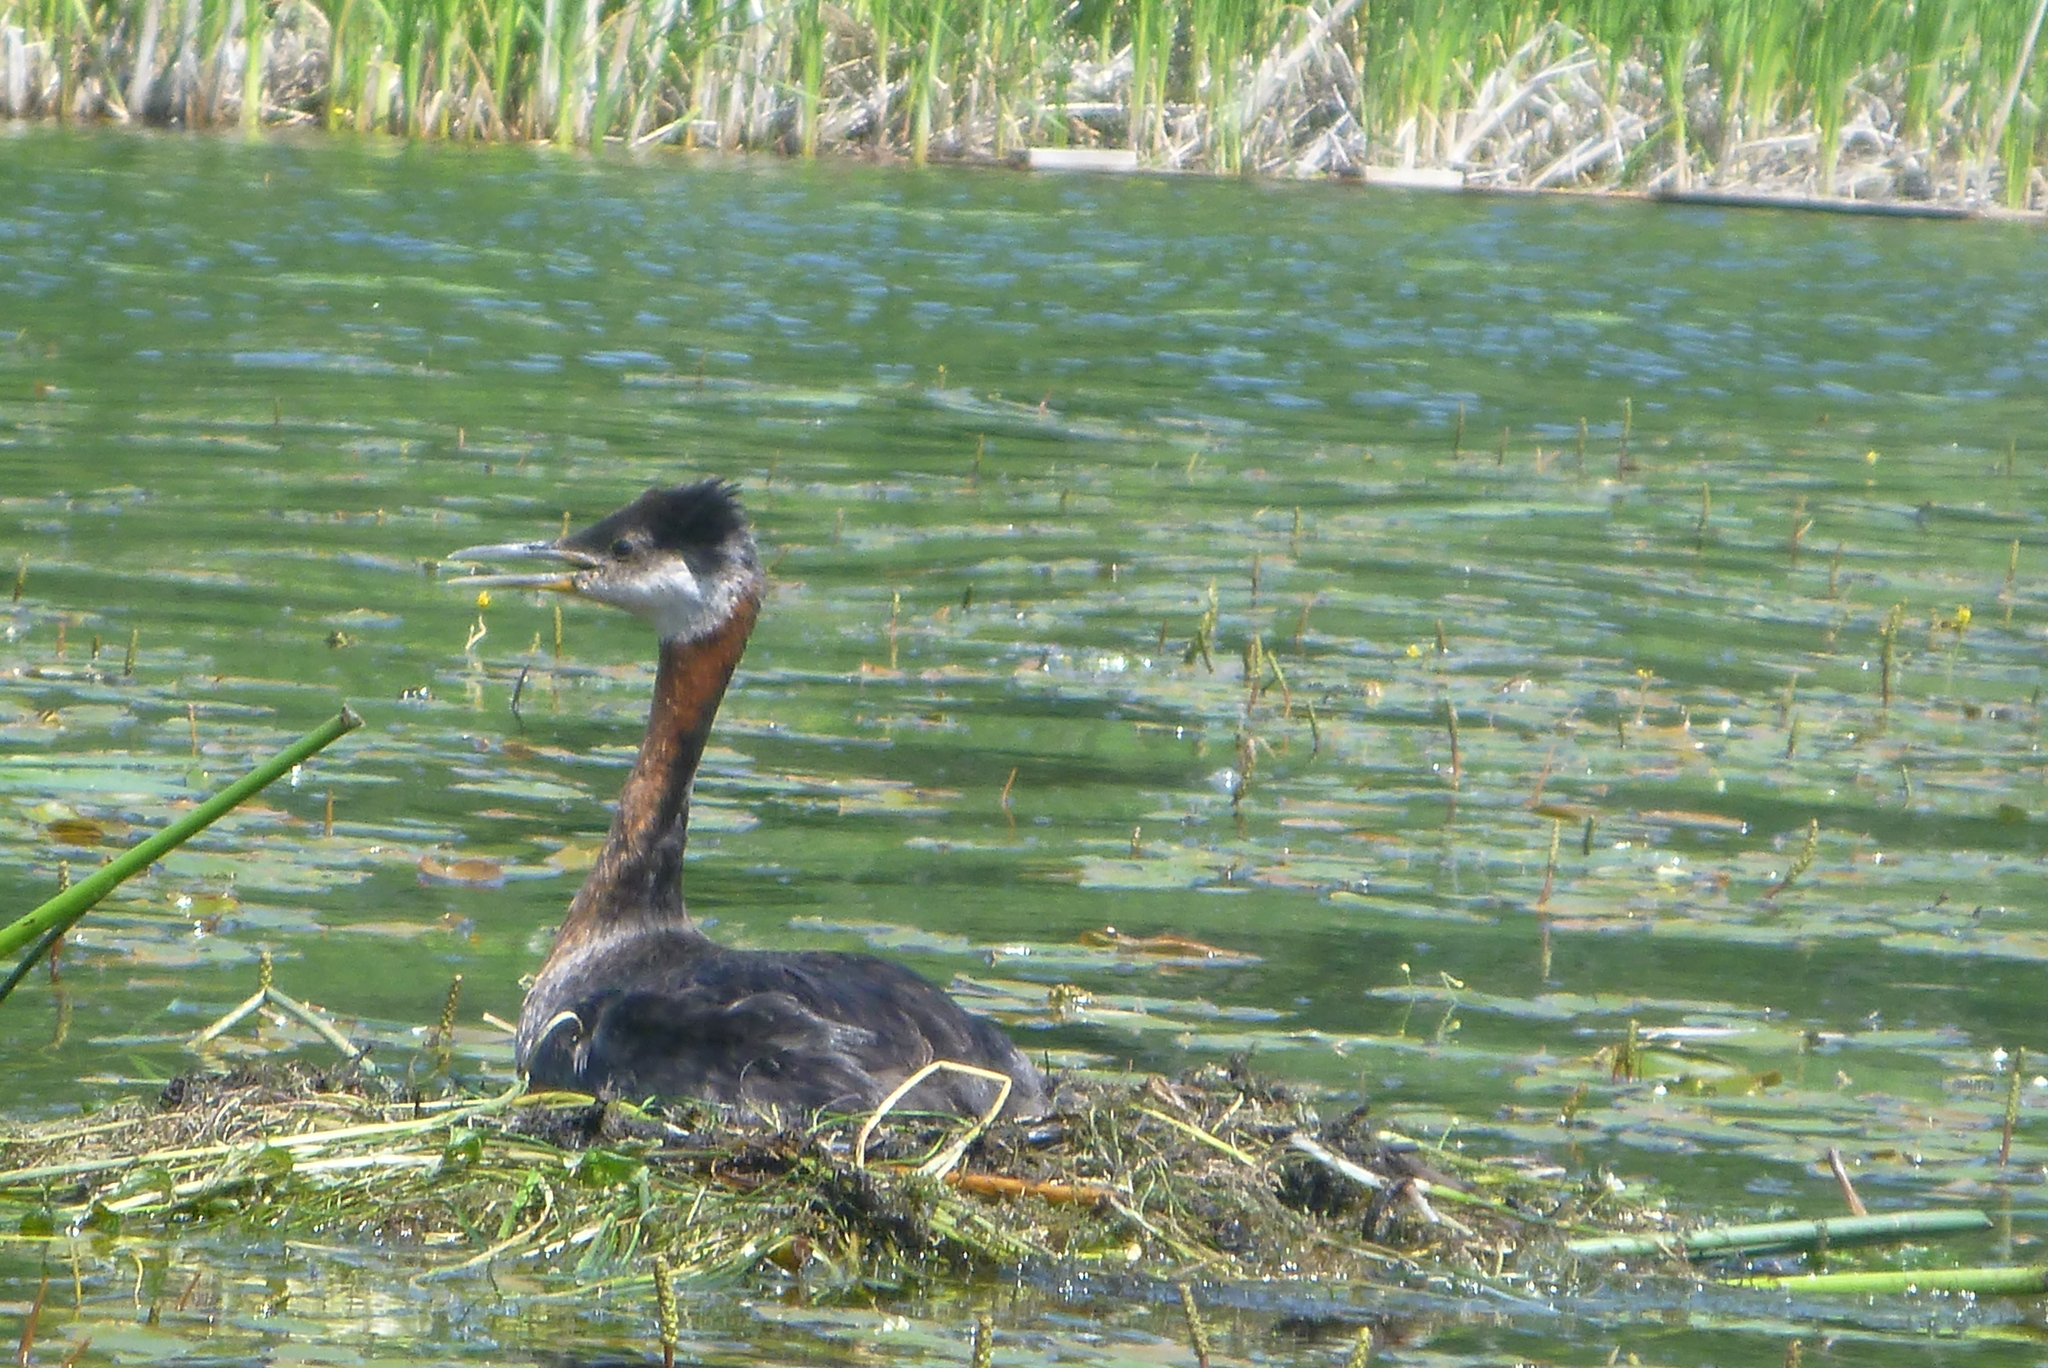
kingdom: Animalia
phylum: Chordata
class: Aves
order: Podicipediformes
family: Podicipedidae
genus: Podiceps
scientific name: Podiceps grisegena
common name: Red-necked grebe
